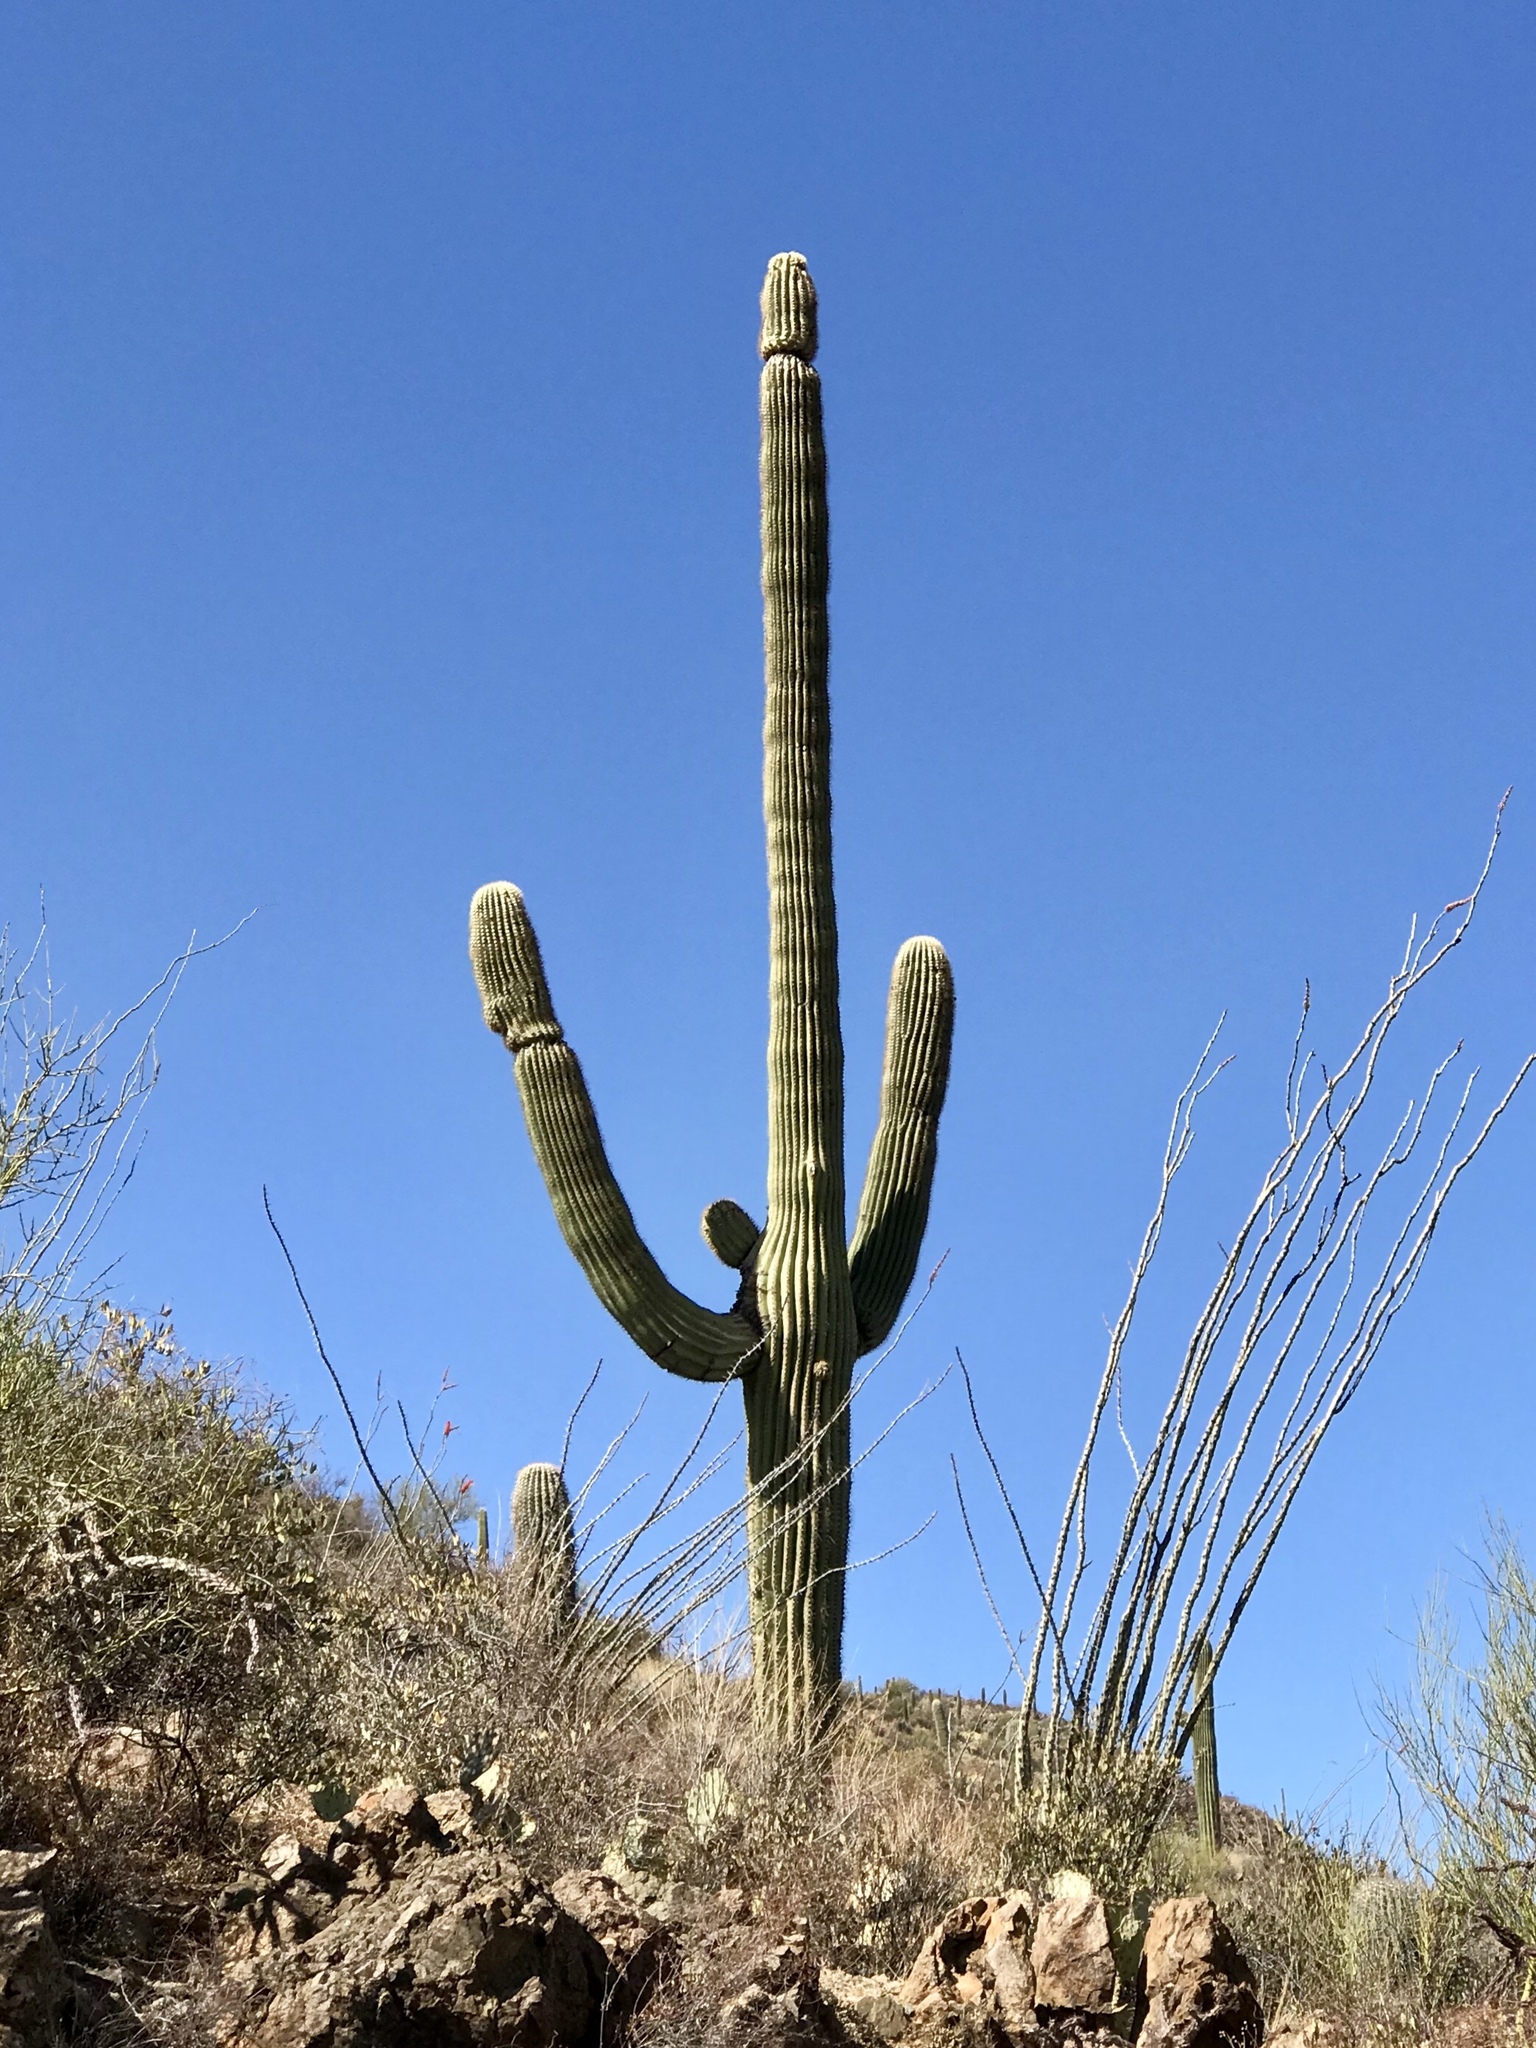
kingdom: Plantae
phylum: Tracheophyta
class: Magnoliopsida
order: Caryophyllales
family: Cactaceae
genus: Carnegiea
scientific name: Carnegiea gigantea
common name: Saguaro
